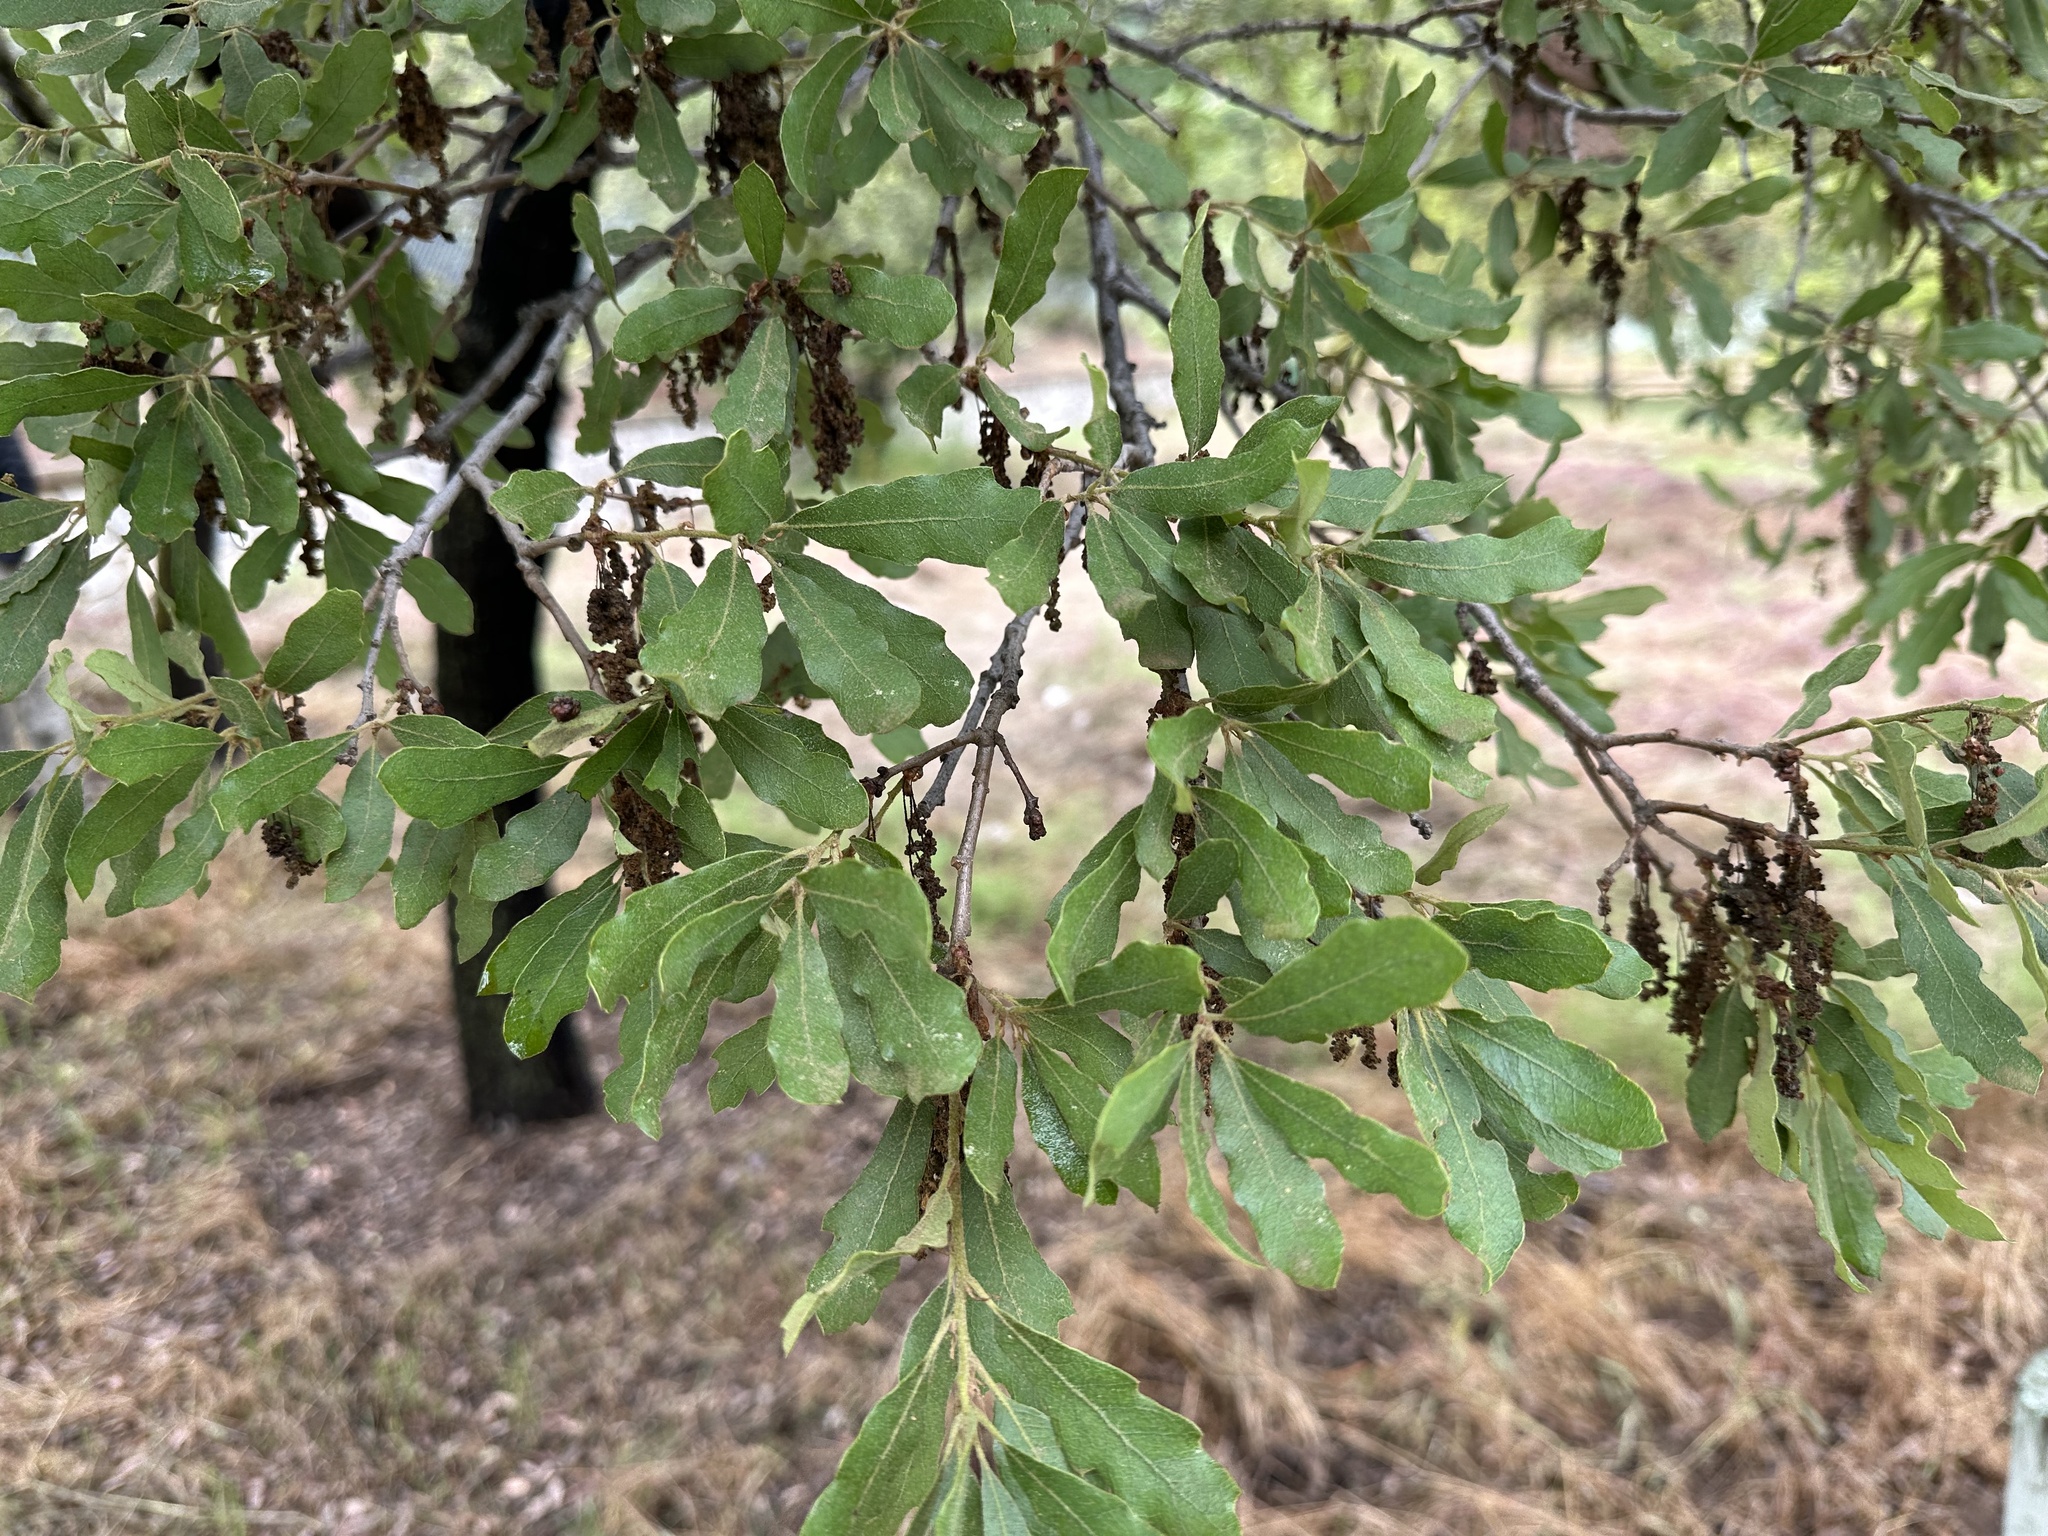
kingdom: Plantae
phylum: Tracheophyta
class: Magnoliopsida
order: Fagales
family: Fagaceae
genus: Quercus
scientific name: Quercus engelmannii
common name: Engelmann oak
